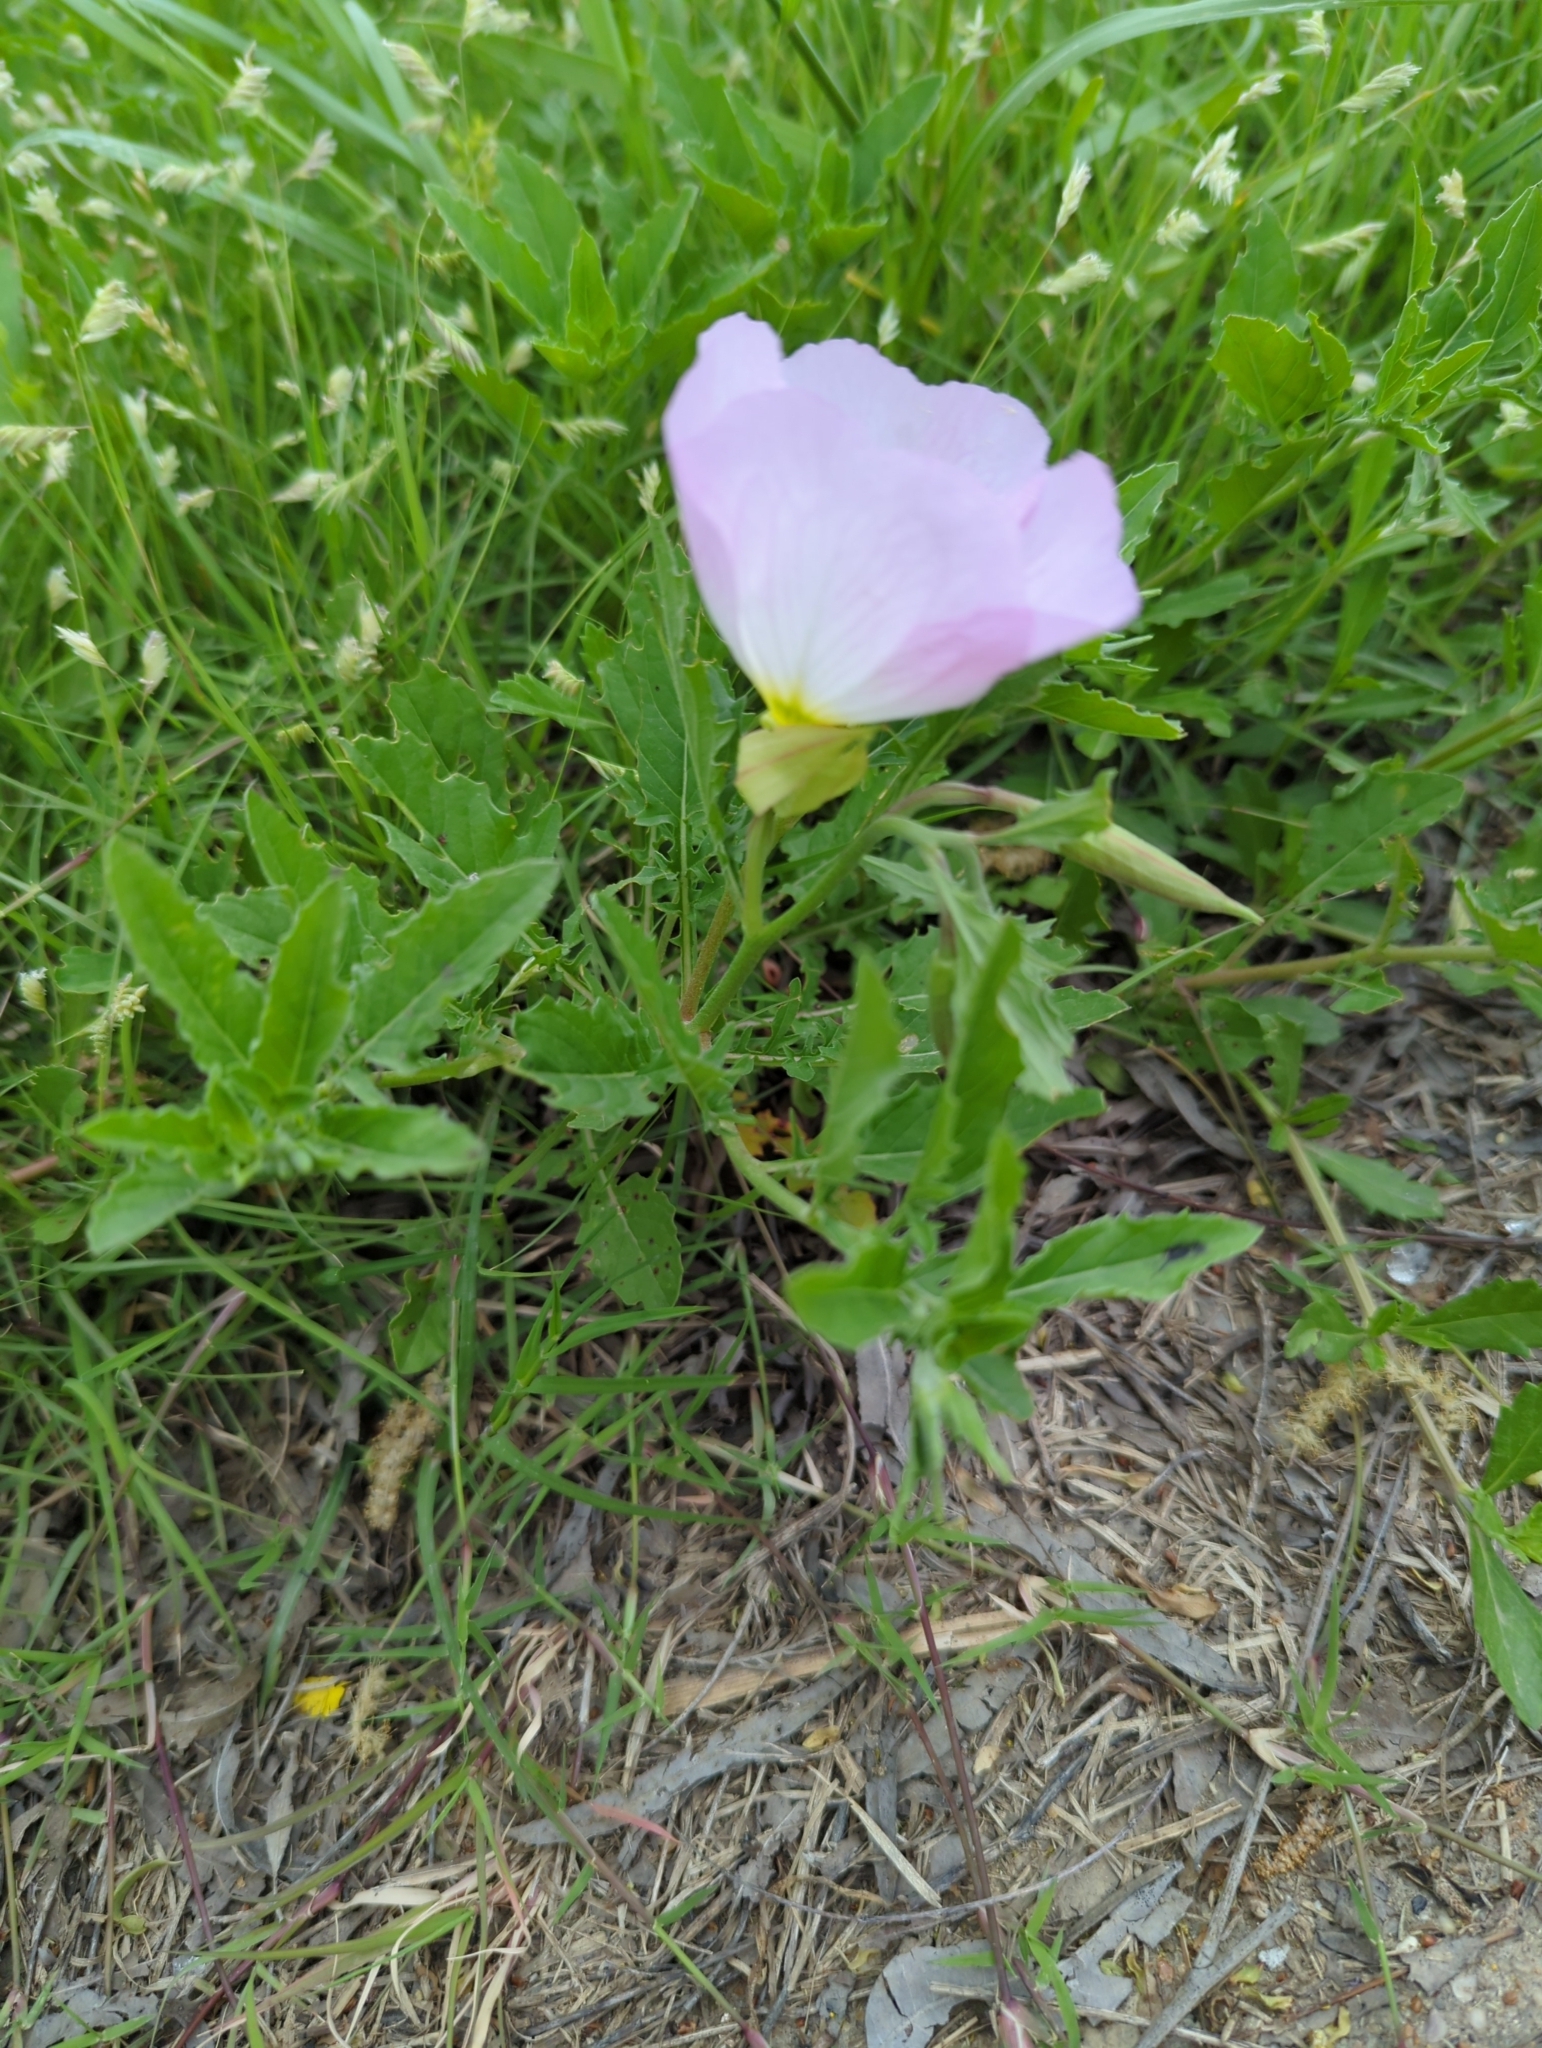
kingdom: Plantae
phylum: Tracheophyta
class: Magnoliopsida
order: Myrtales
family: Onagraceae
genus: Oenothera
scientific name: Oenothera speciosa
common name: White evening-primrose
